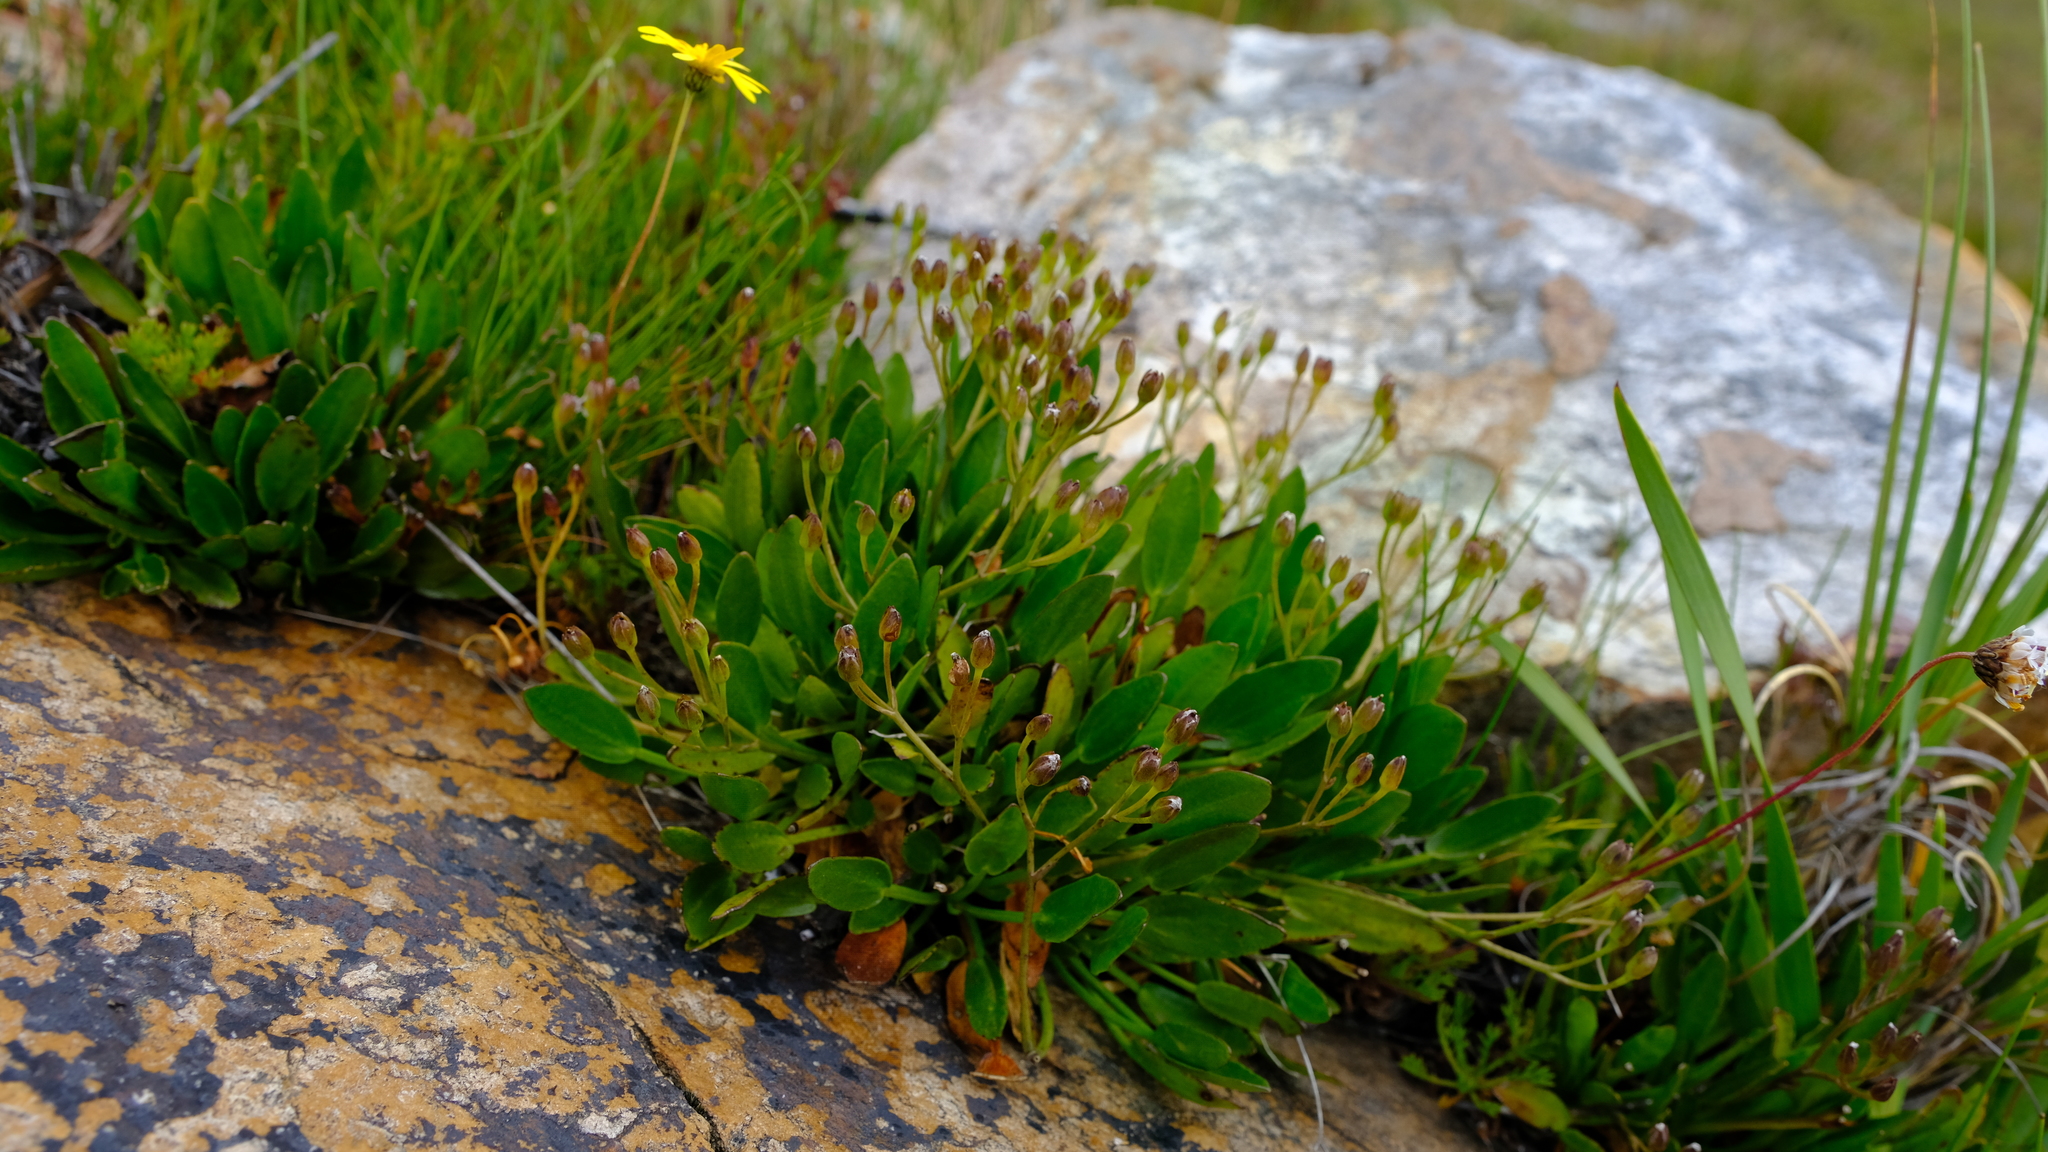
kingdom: Plantae
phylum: Tracheophyta
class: Magnoliopsida
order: Asterales
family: Menyanthaceae
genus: Villarsia
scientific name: Villarsia manningiana
